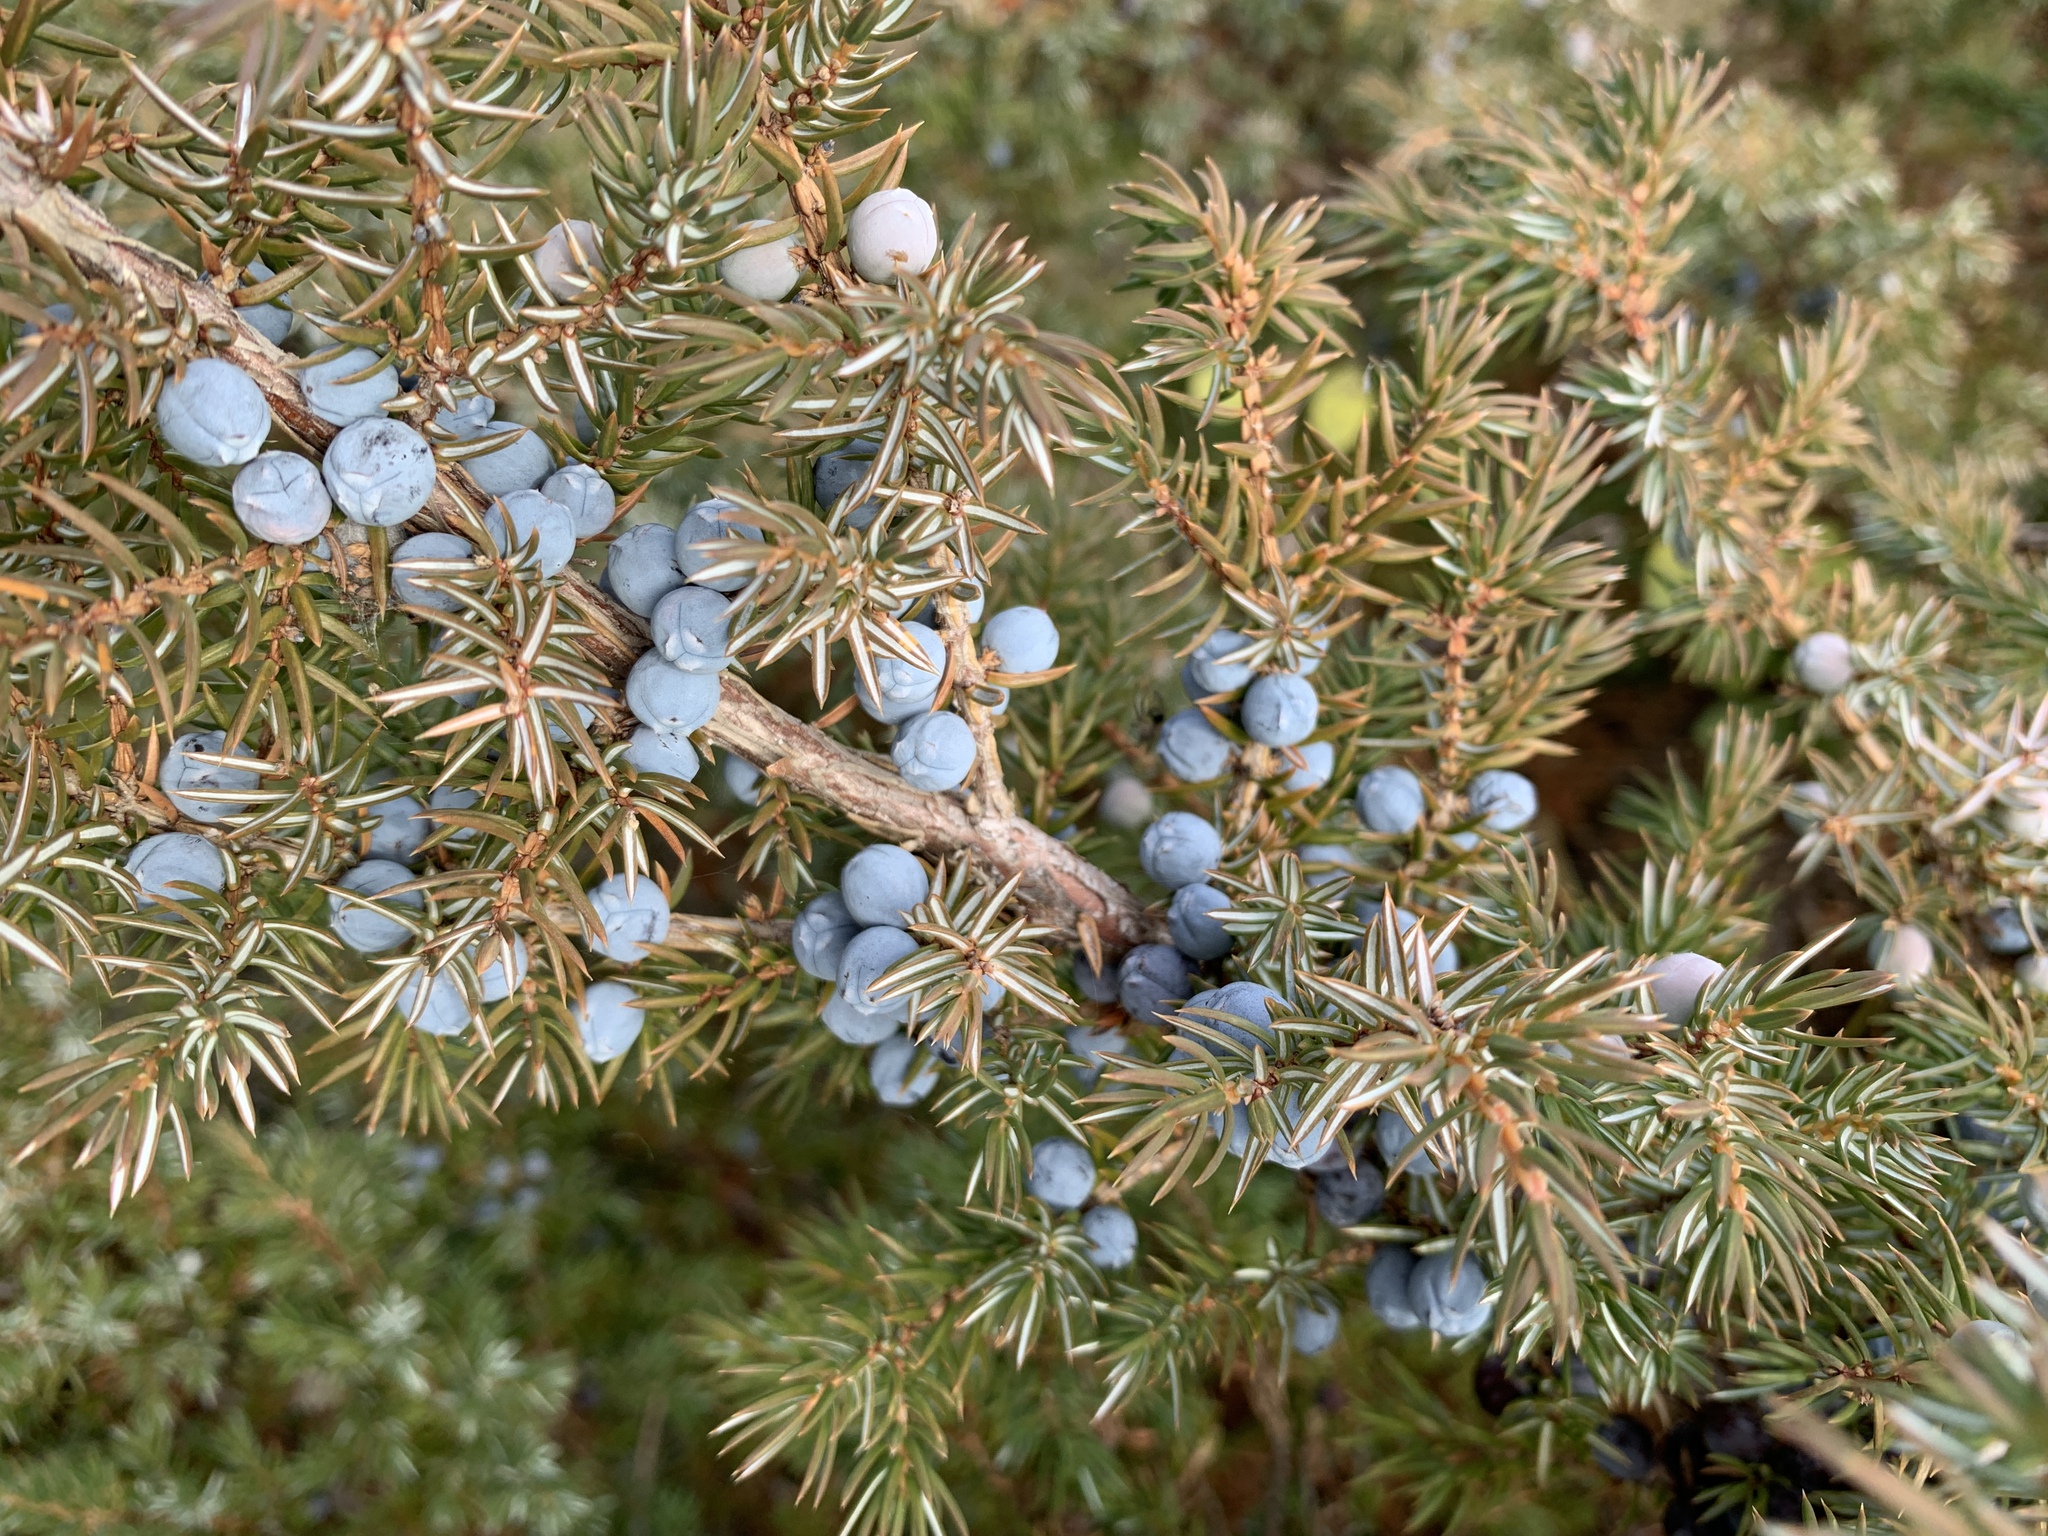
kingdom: Plantae
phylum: Tracheophyta
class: Pinopsida
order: Pinales
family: Cupressaceae
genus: Juniperus
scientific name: Juniperus communis
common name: Common juniper
